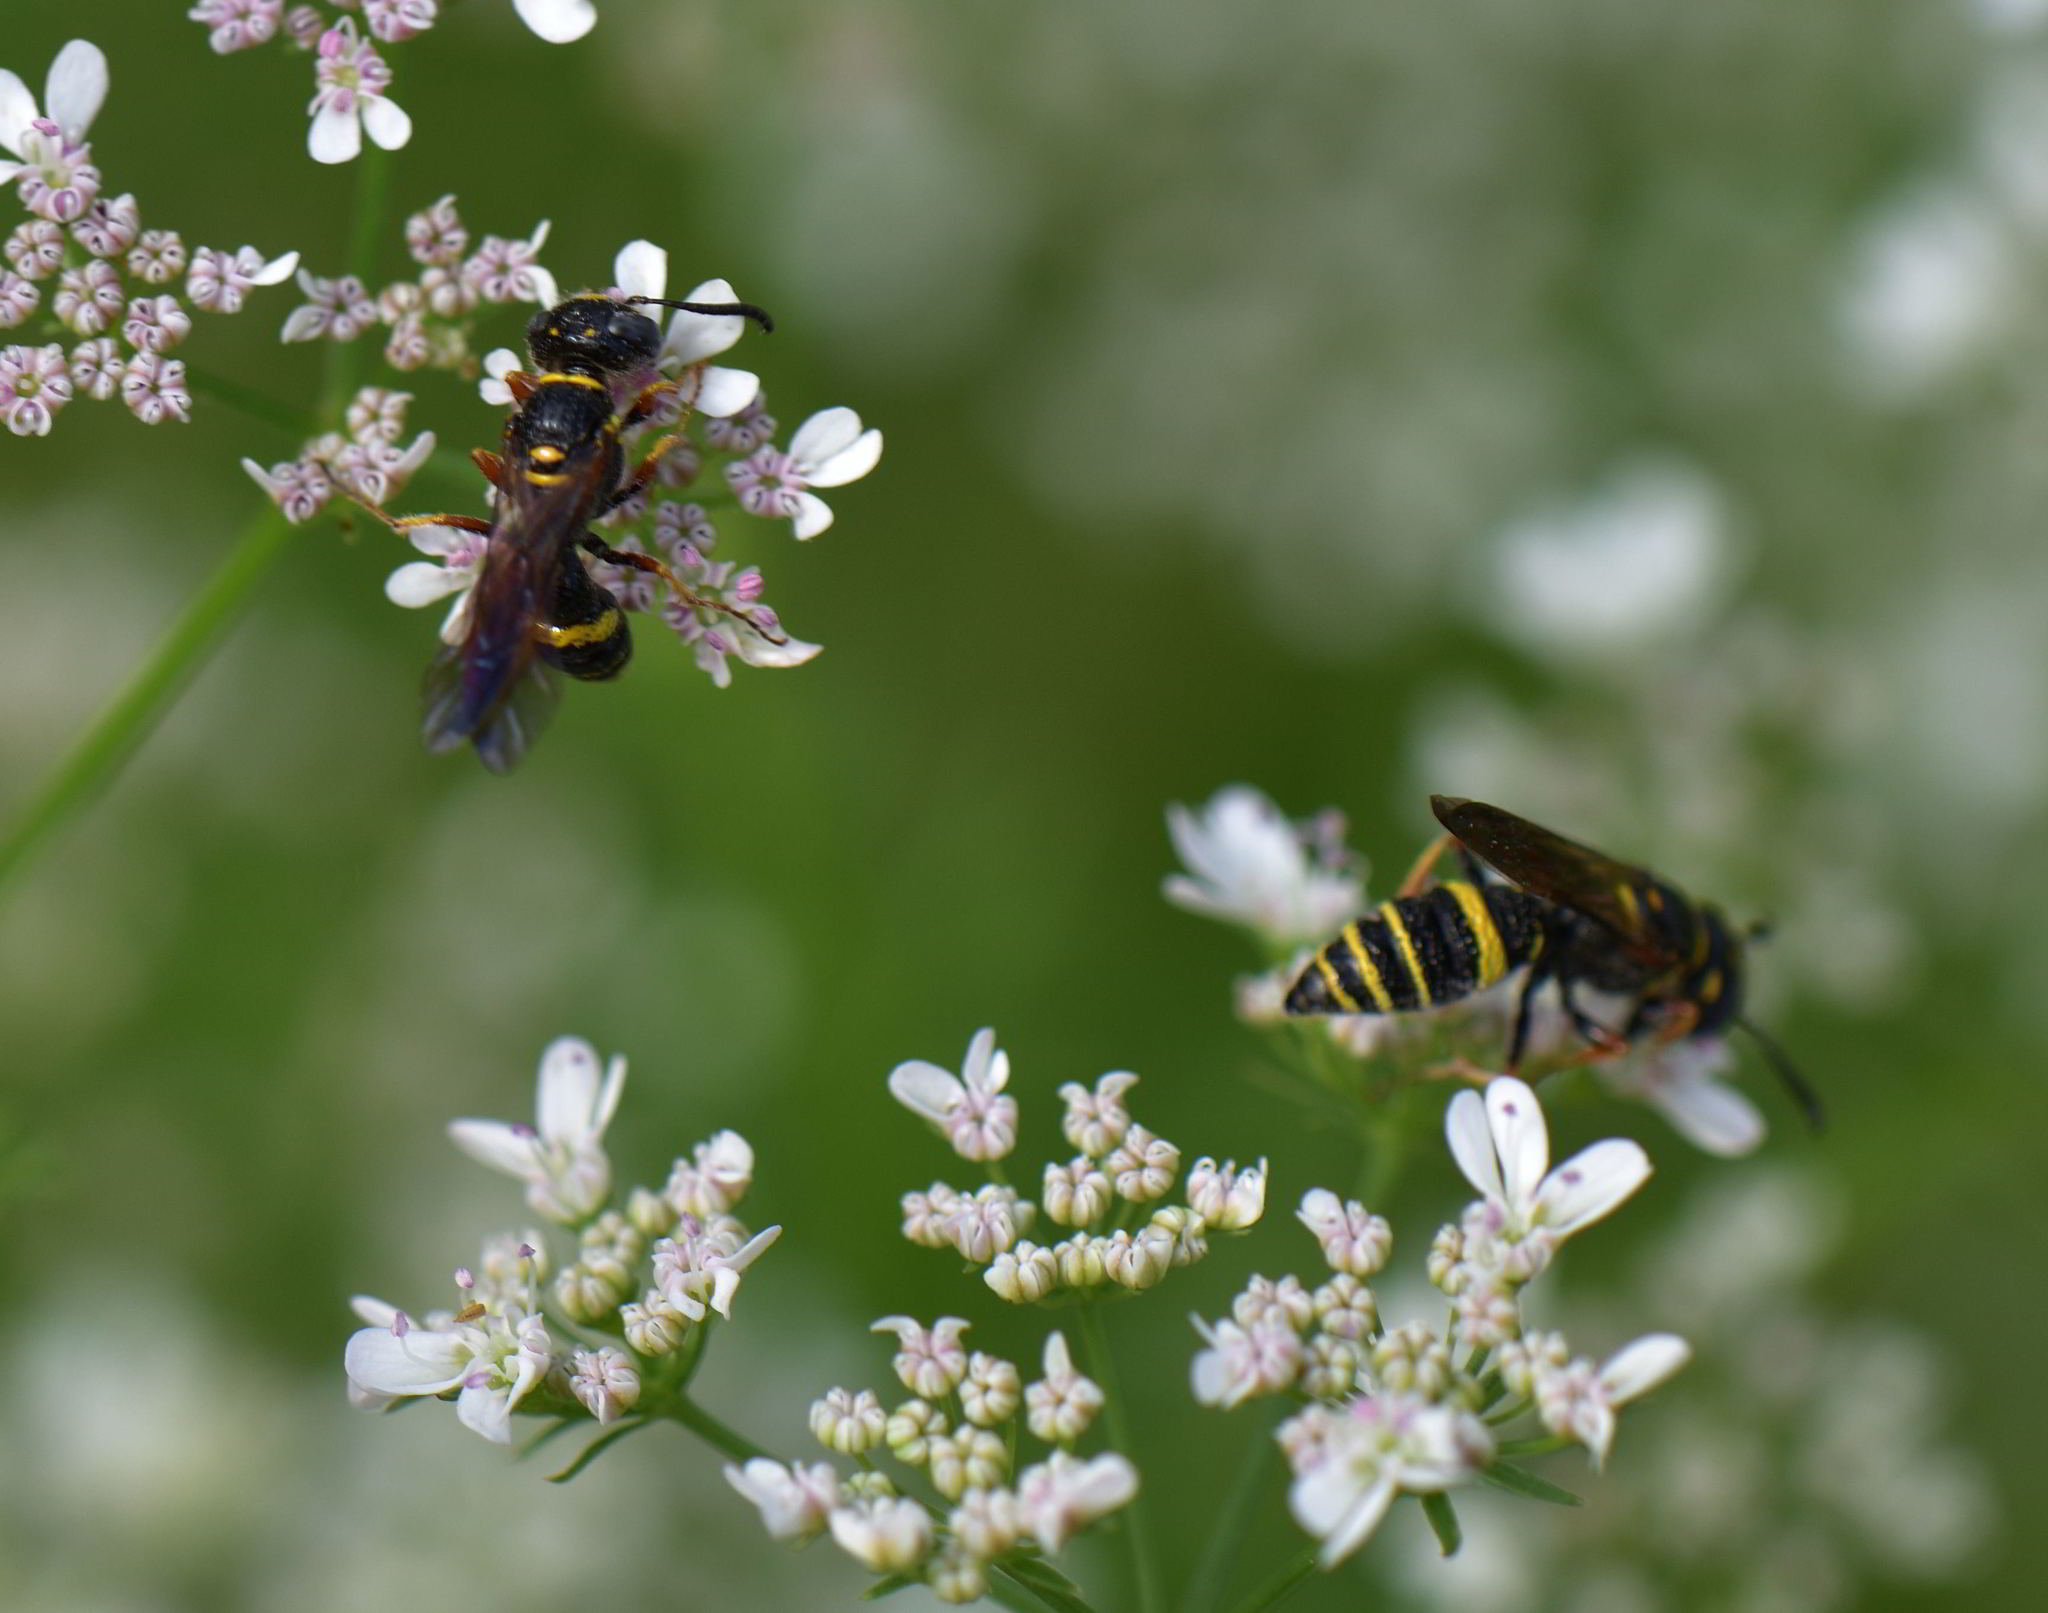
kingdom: Animalia
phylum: Arthropoda
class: Insecta
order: Hymenoptera
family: Crabronidae
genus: Philanthus
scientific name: Philanthus gibbosus
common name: Humped beewolf
